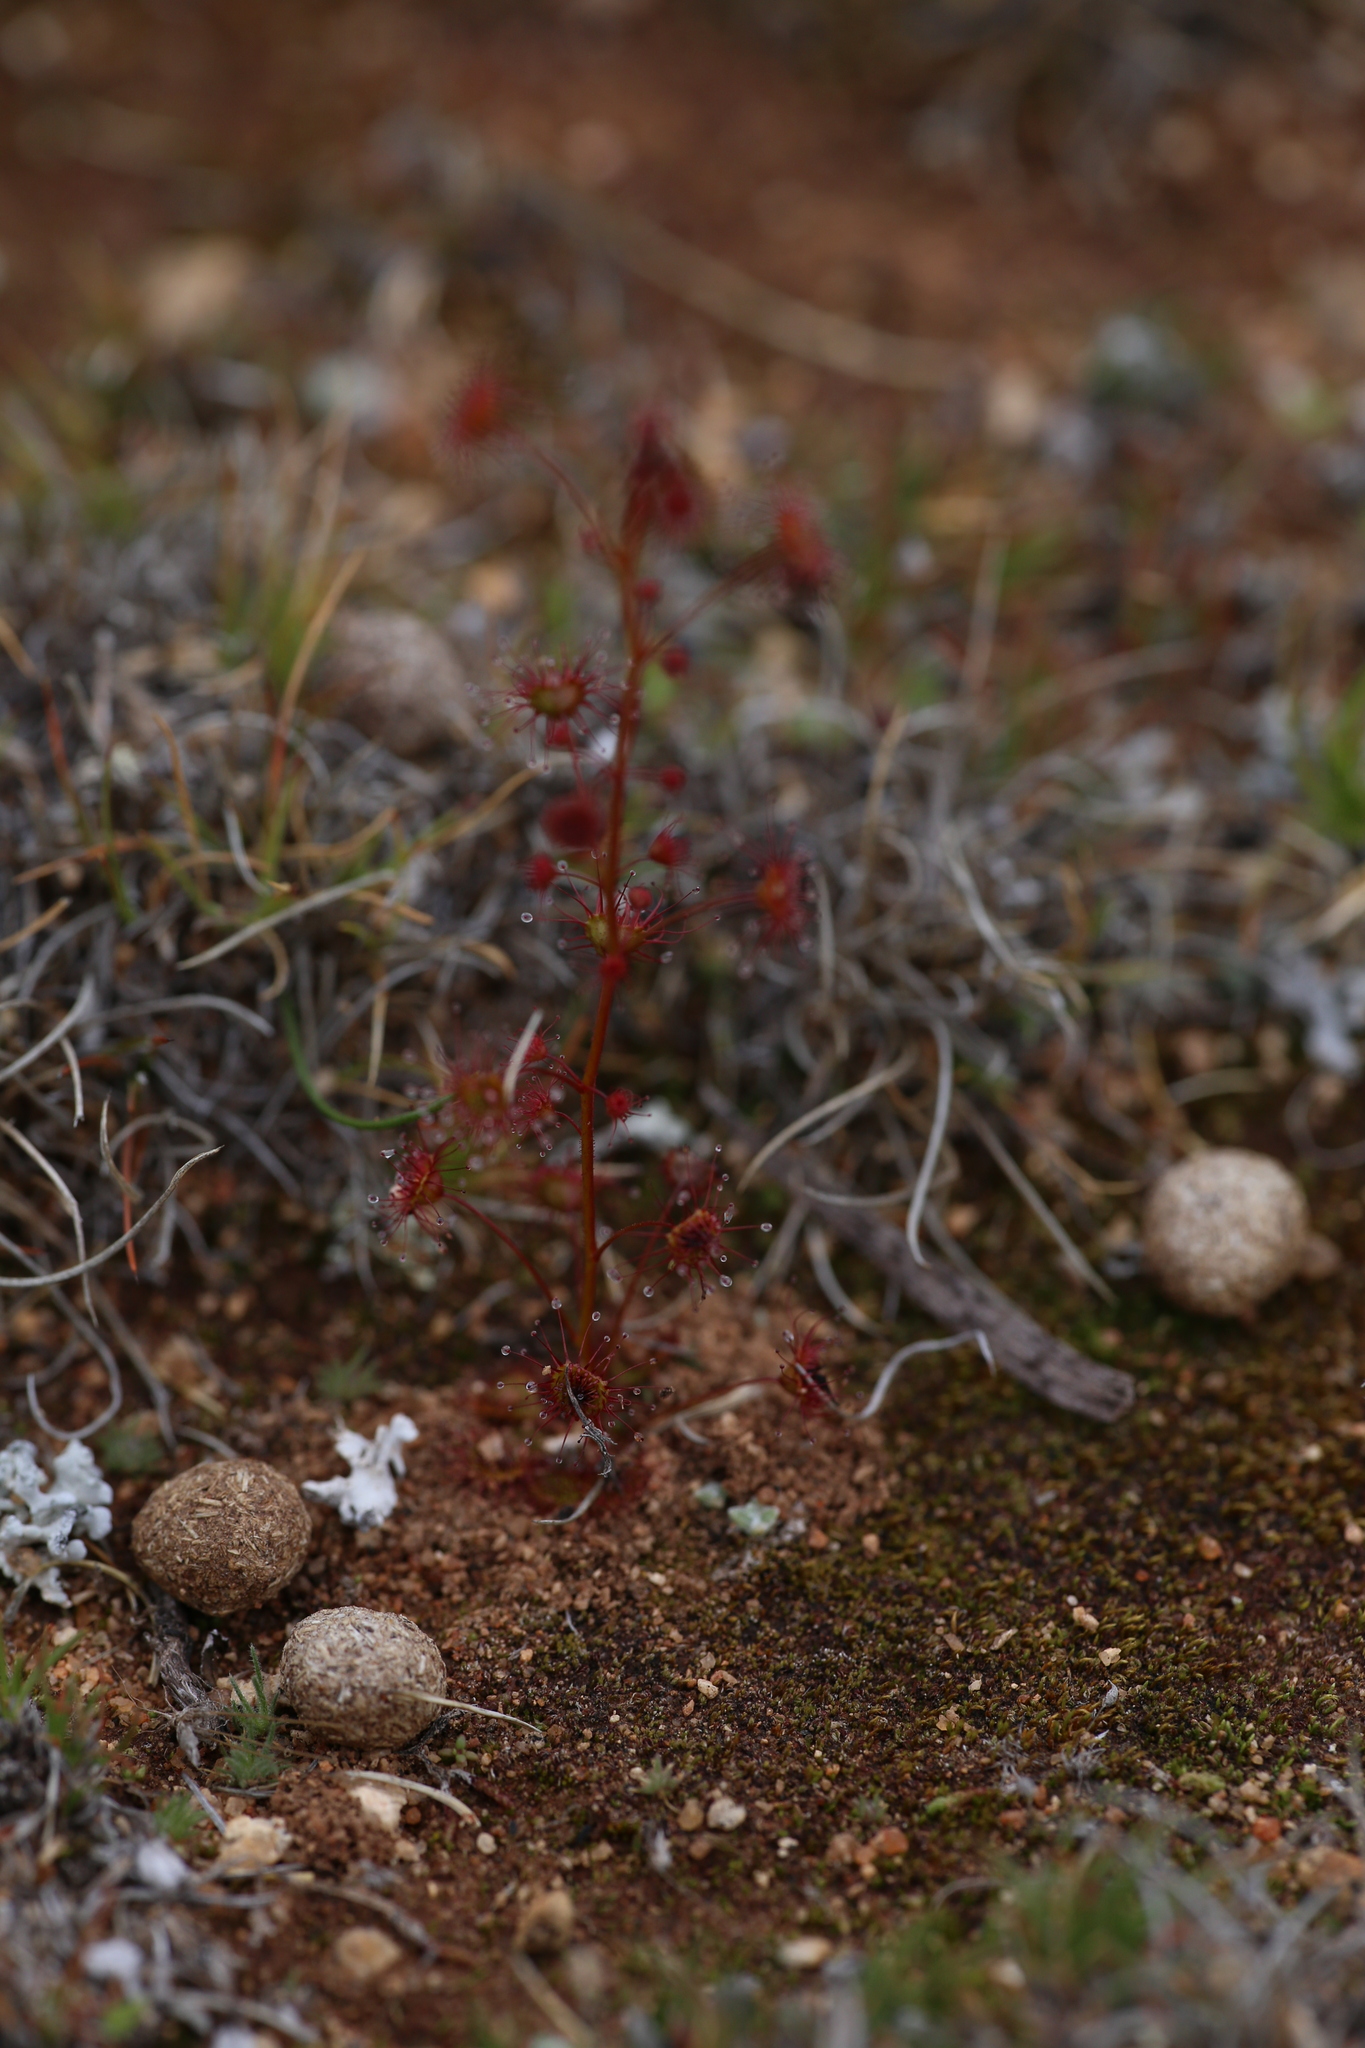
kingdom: Plantae
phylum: Tracheophyta
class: Magnoliopsida
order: Caryophyllales
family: Droseraceae
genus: Drosera
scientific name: Drosera andersoniana
